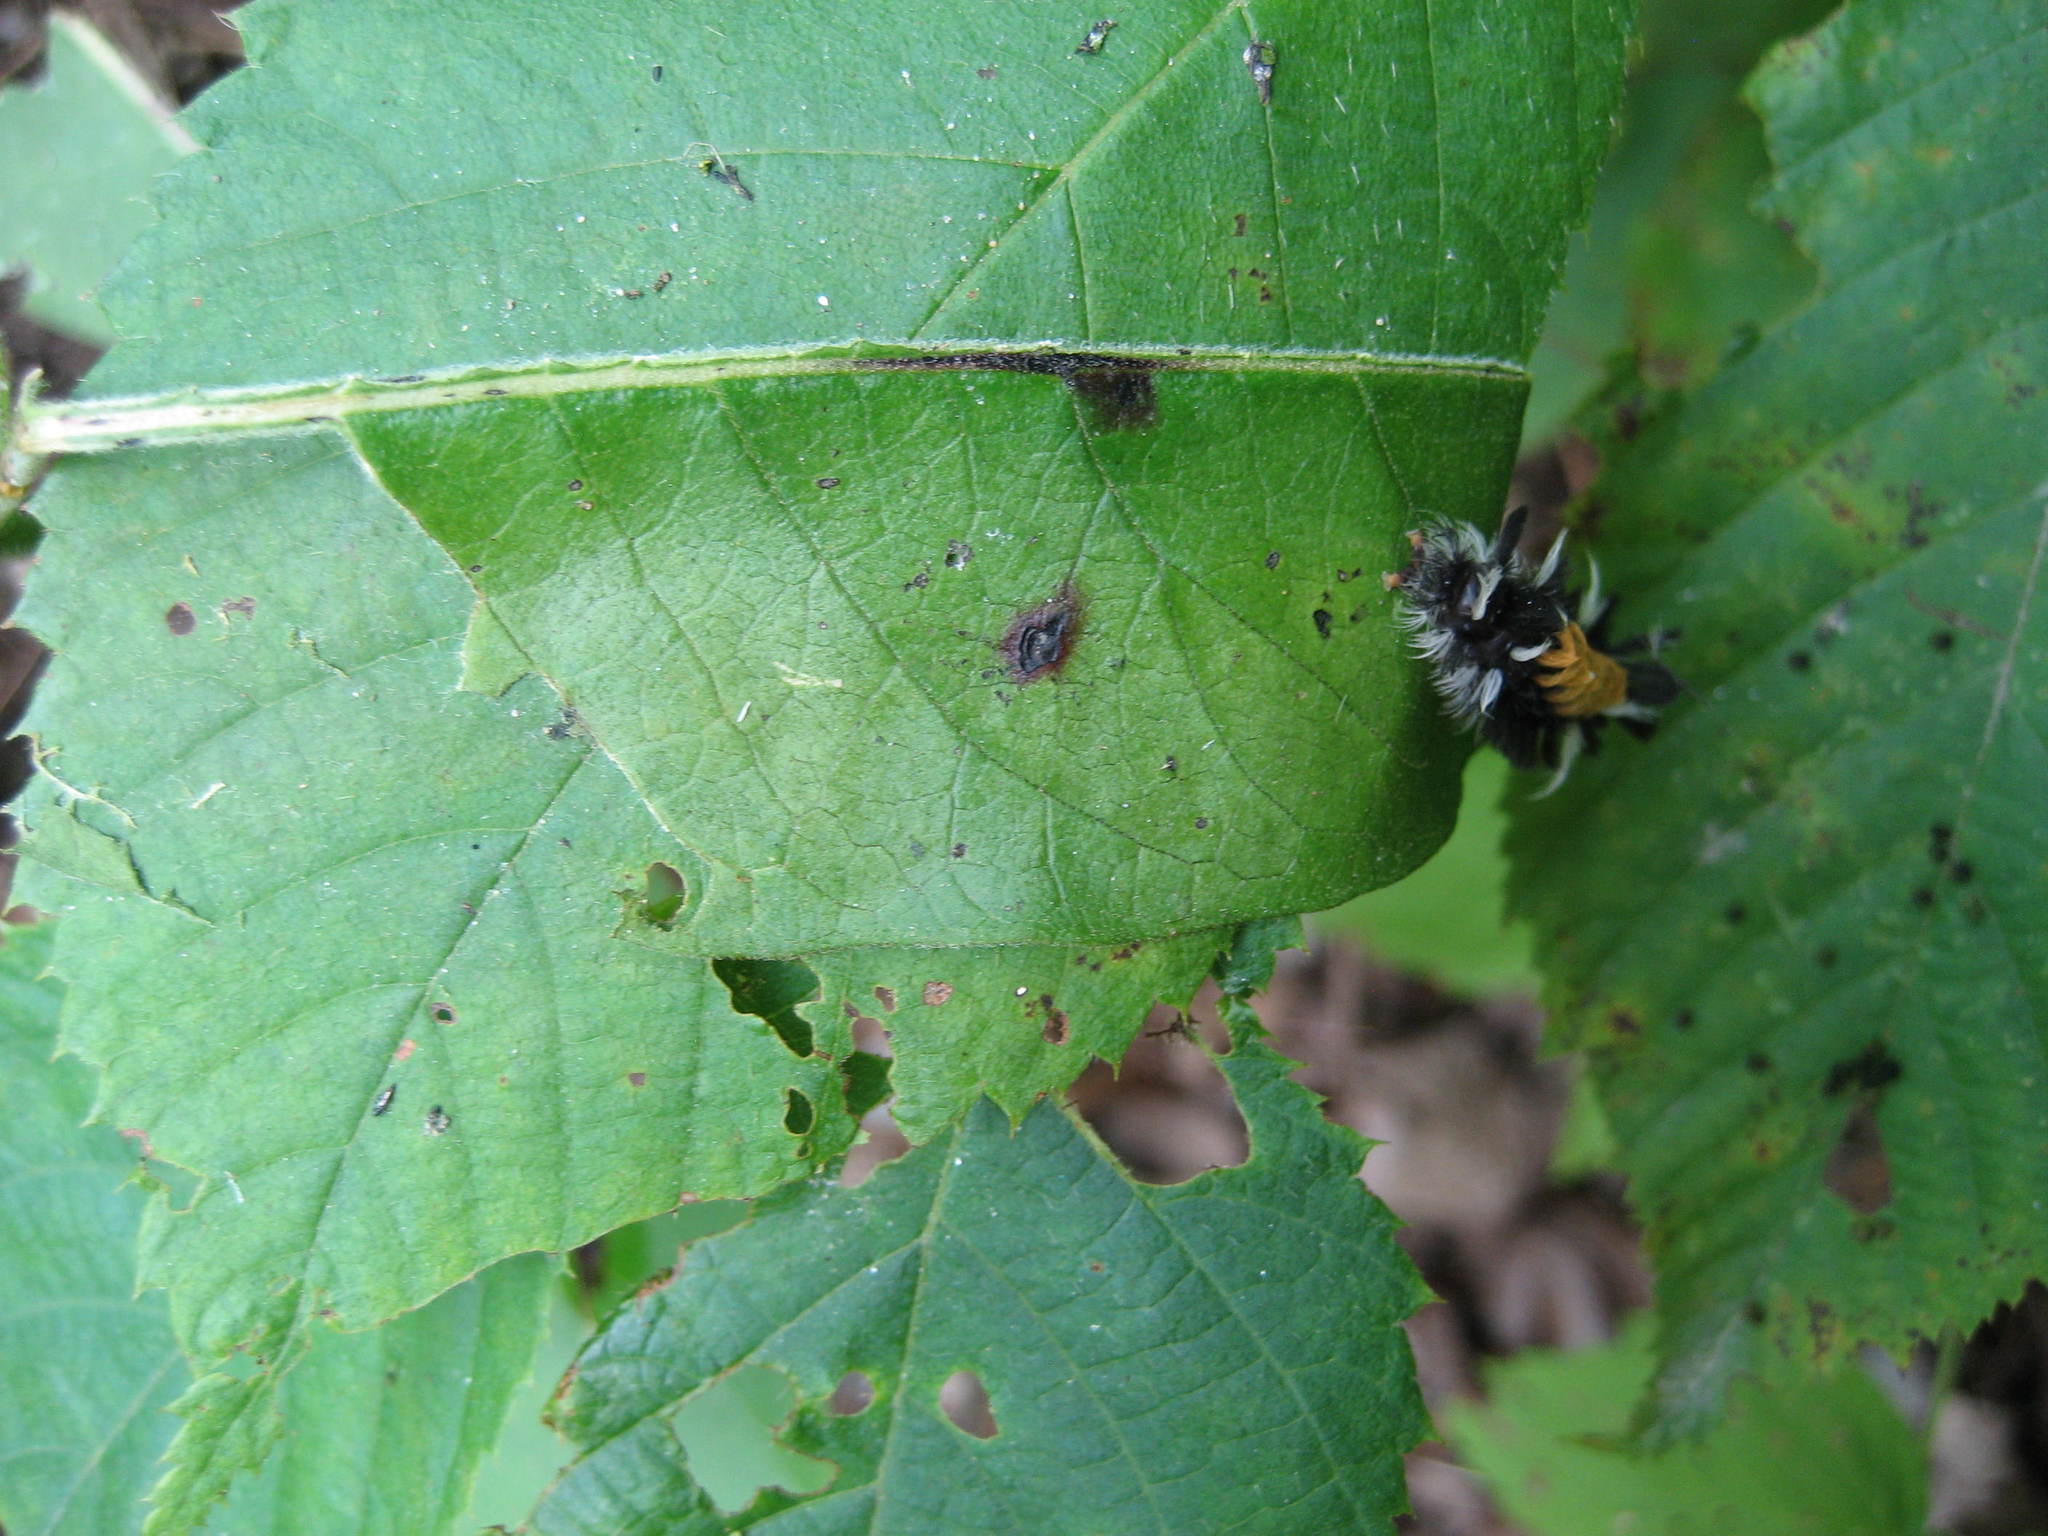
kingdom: Animalia
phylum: Arthropoda
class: Insecta
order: Lepidoptera
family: Erebidae
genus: Euchaetes
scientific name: Euchaetes egle
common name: Milkweed tussock moth
